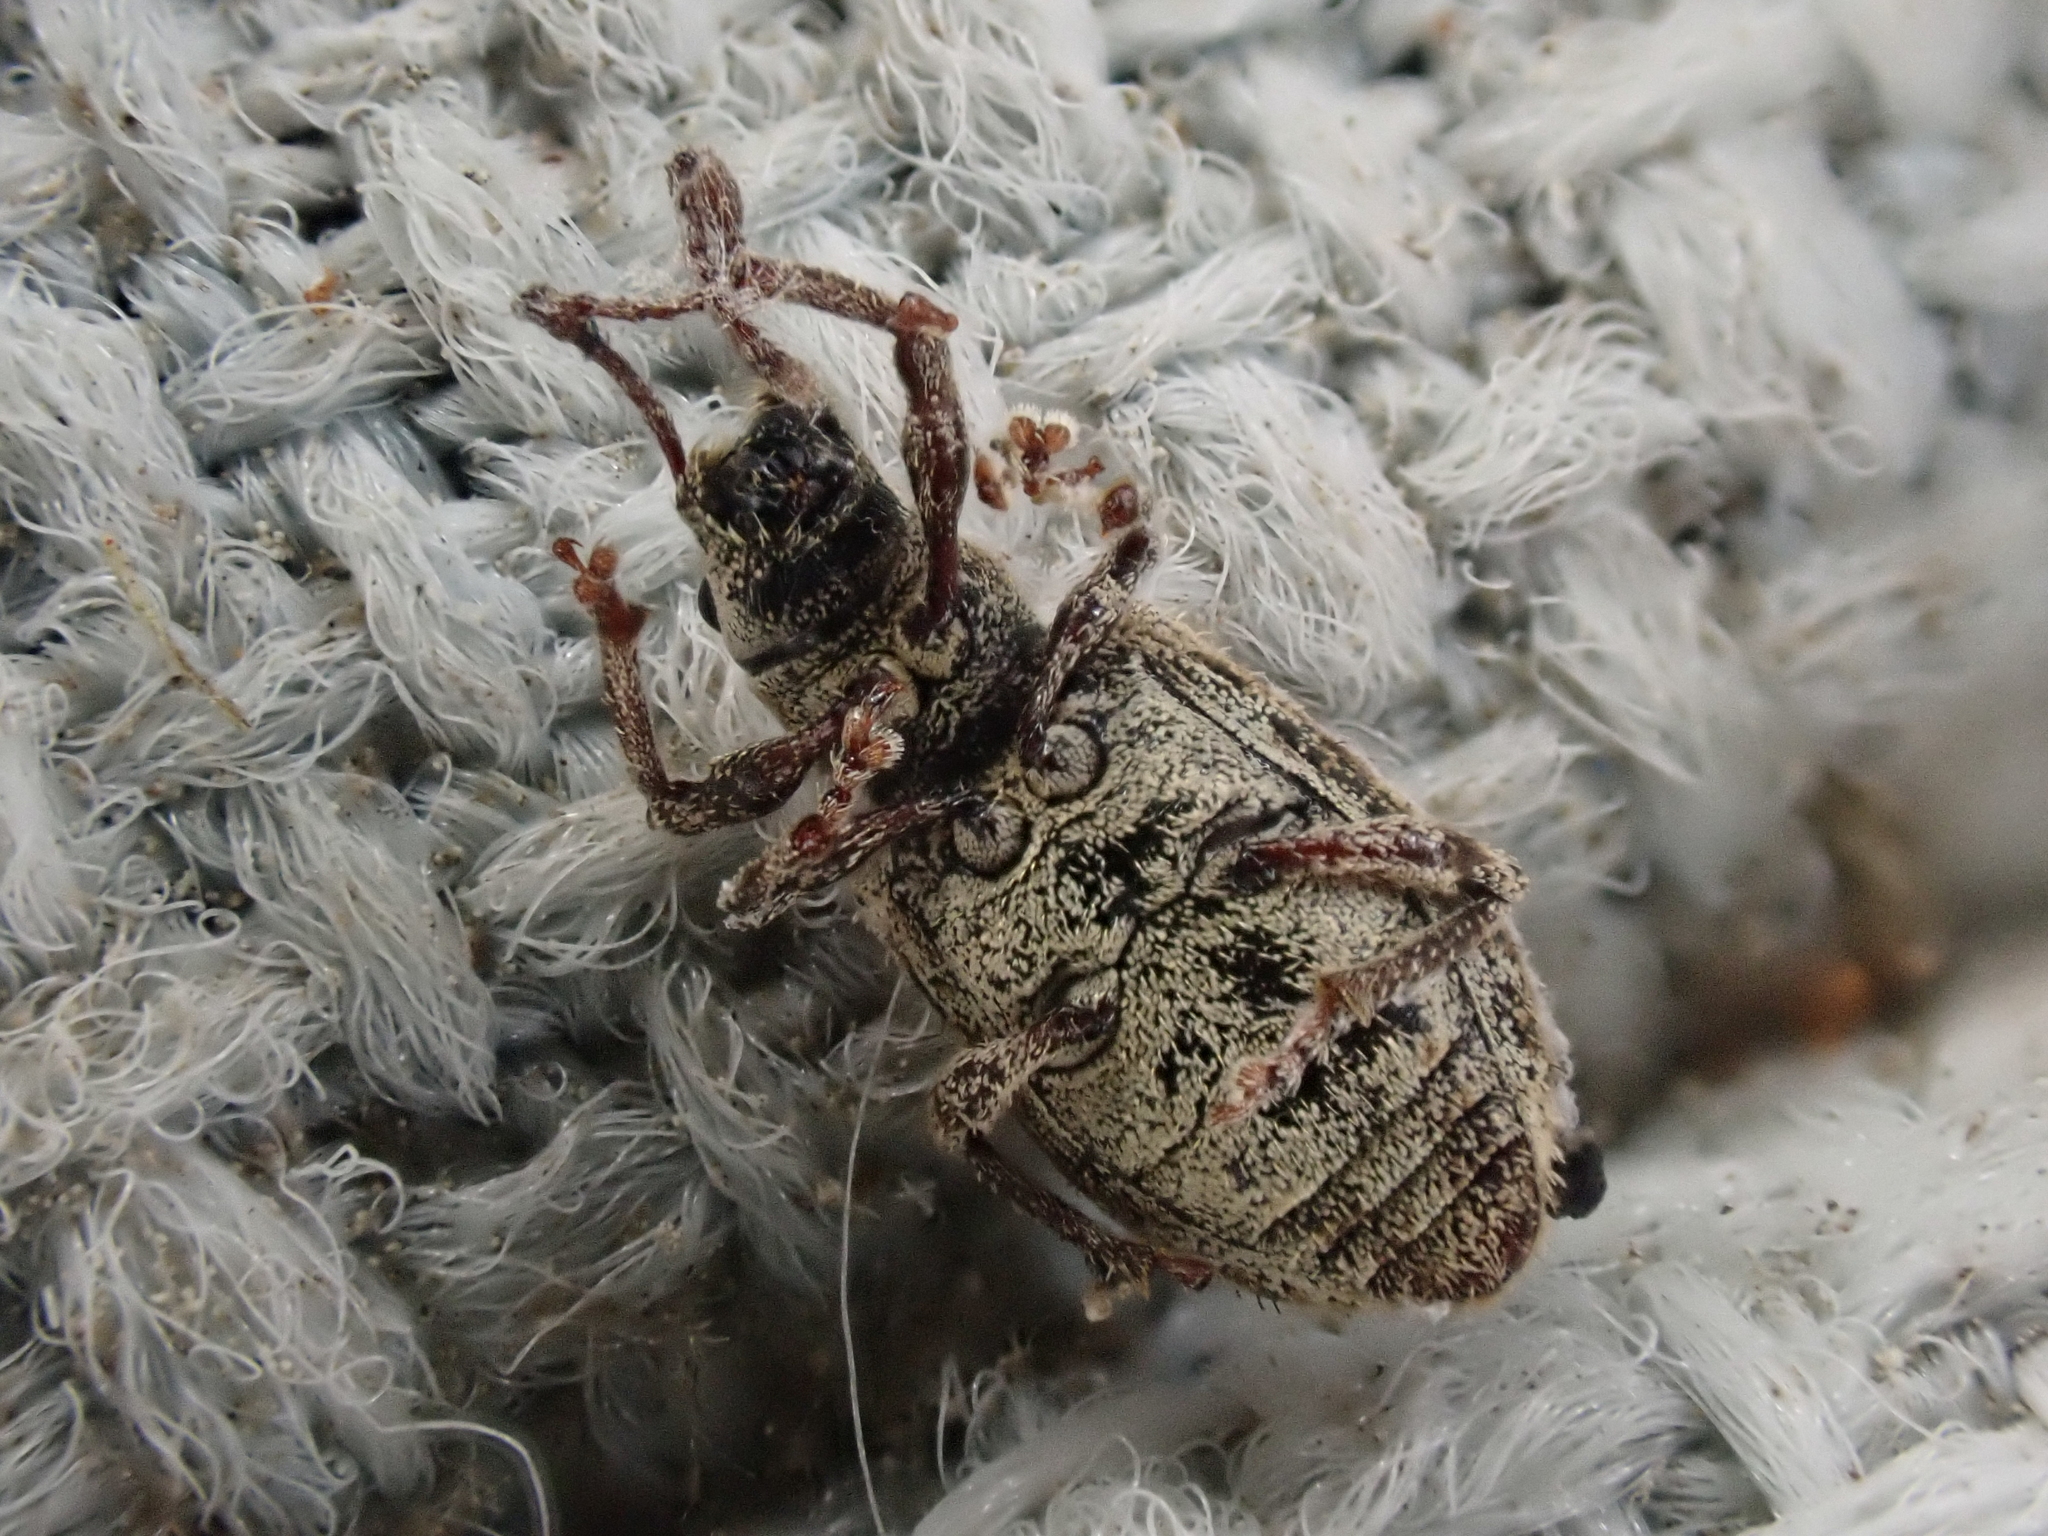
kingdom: Animalia
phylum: Arthropoda
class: Insecta
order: Coleoptera
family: Curculionidae
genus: Pseudoedophrys
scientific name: Pseudoedophrys hilleri
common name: Weevil
